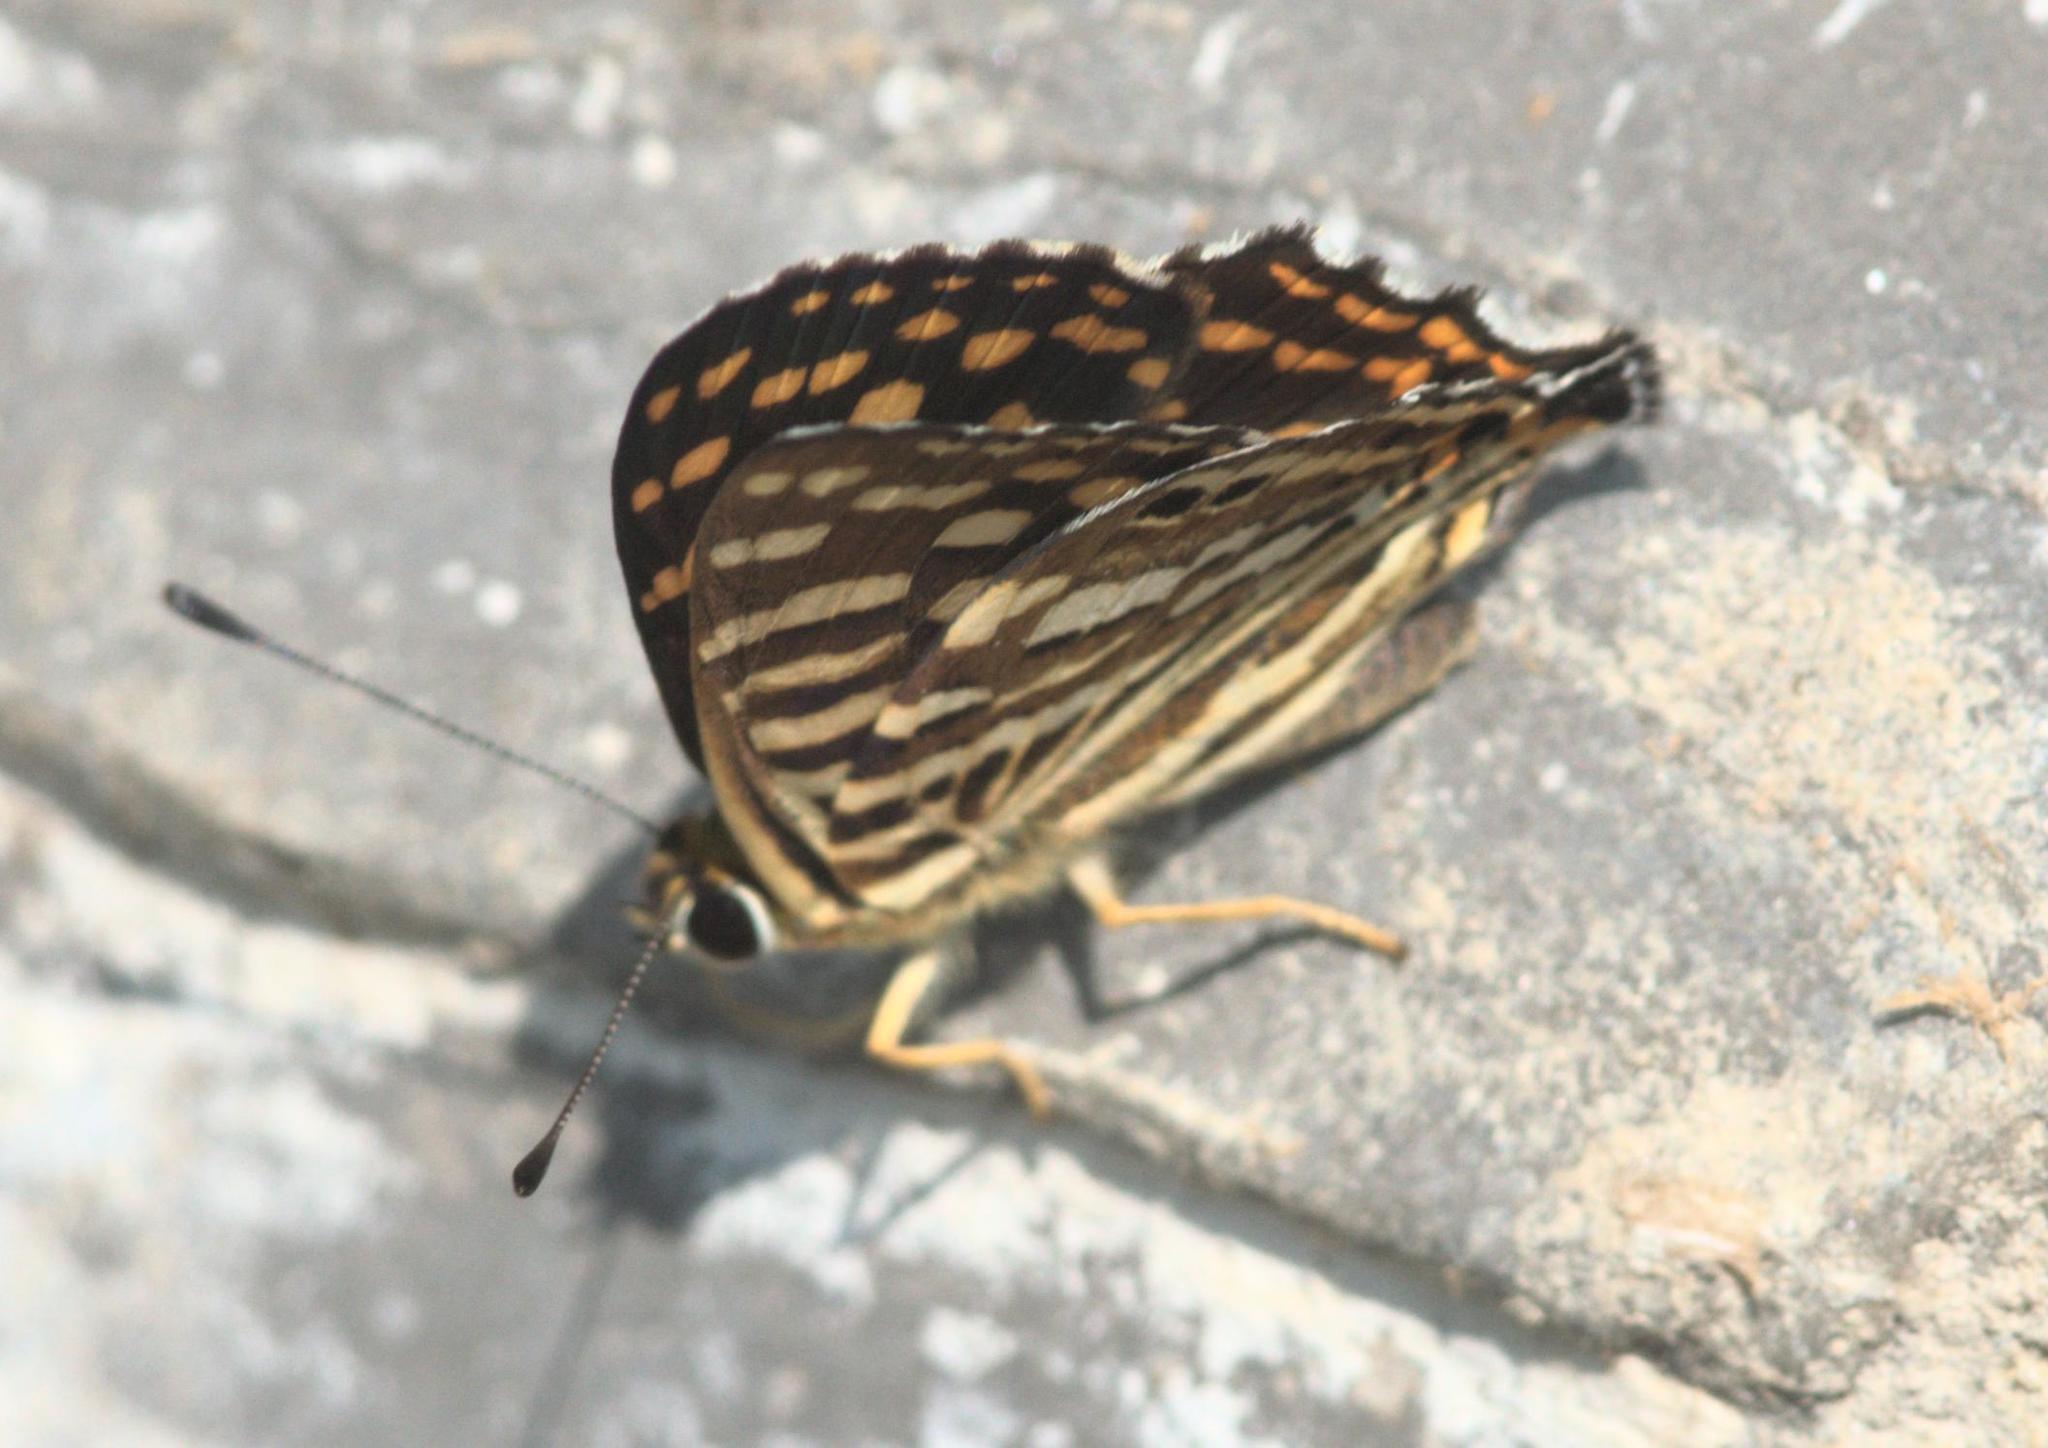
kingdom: Animalia
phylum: Arthropoda
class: Insecta
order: Lepidoptera
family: Lycaenidae
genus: Dodona
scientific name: Dodona durga
